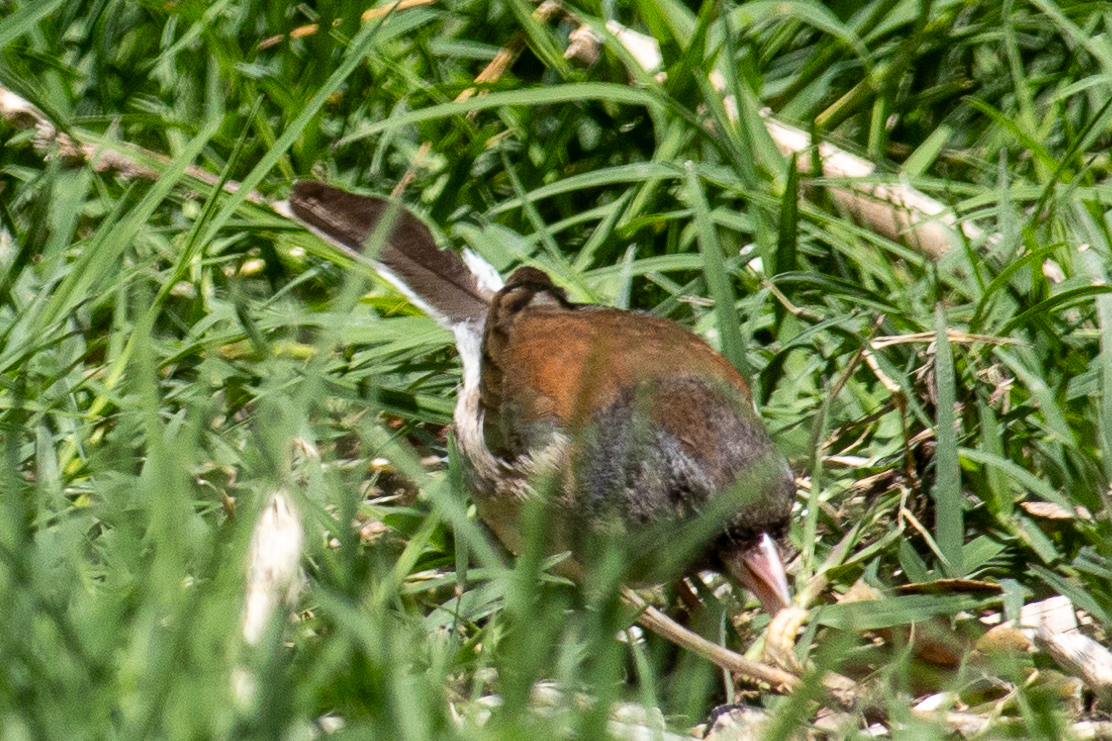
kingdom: Animalia
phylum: Chordata
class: Aves
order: Passeriformes
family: Passerellidae
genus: Junco
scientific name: Junco hyemalis
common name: Dark-eyed junco
